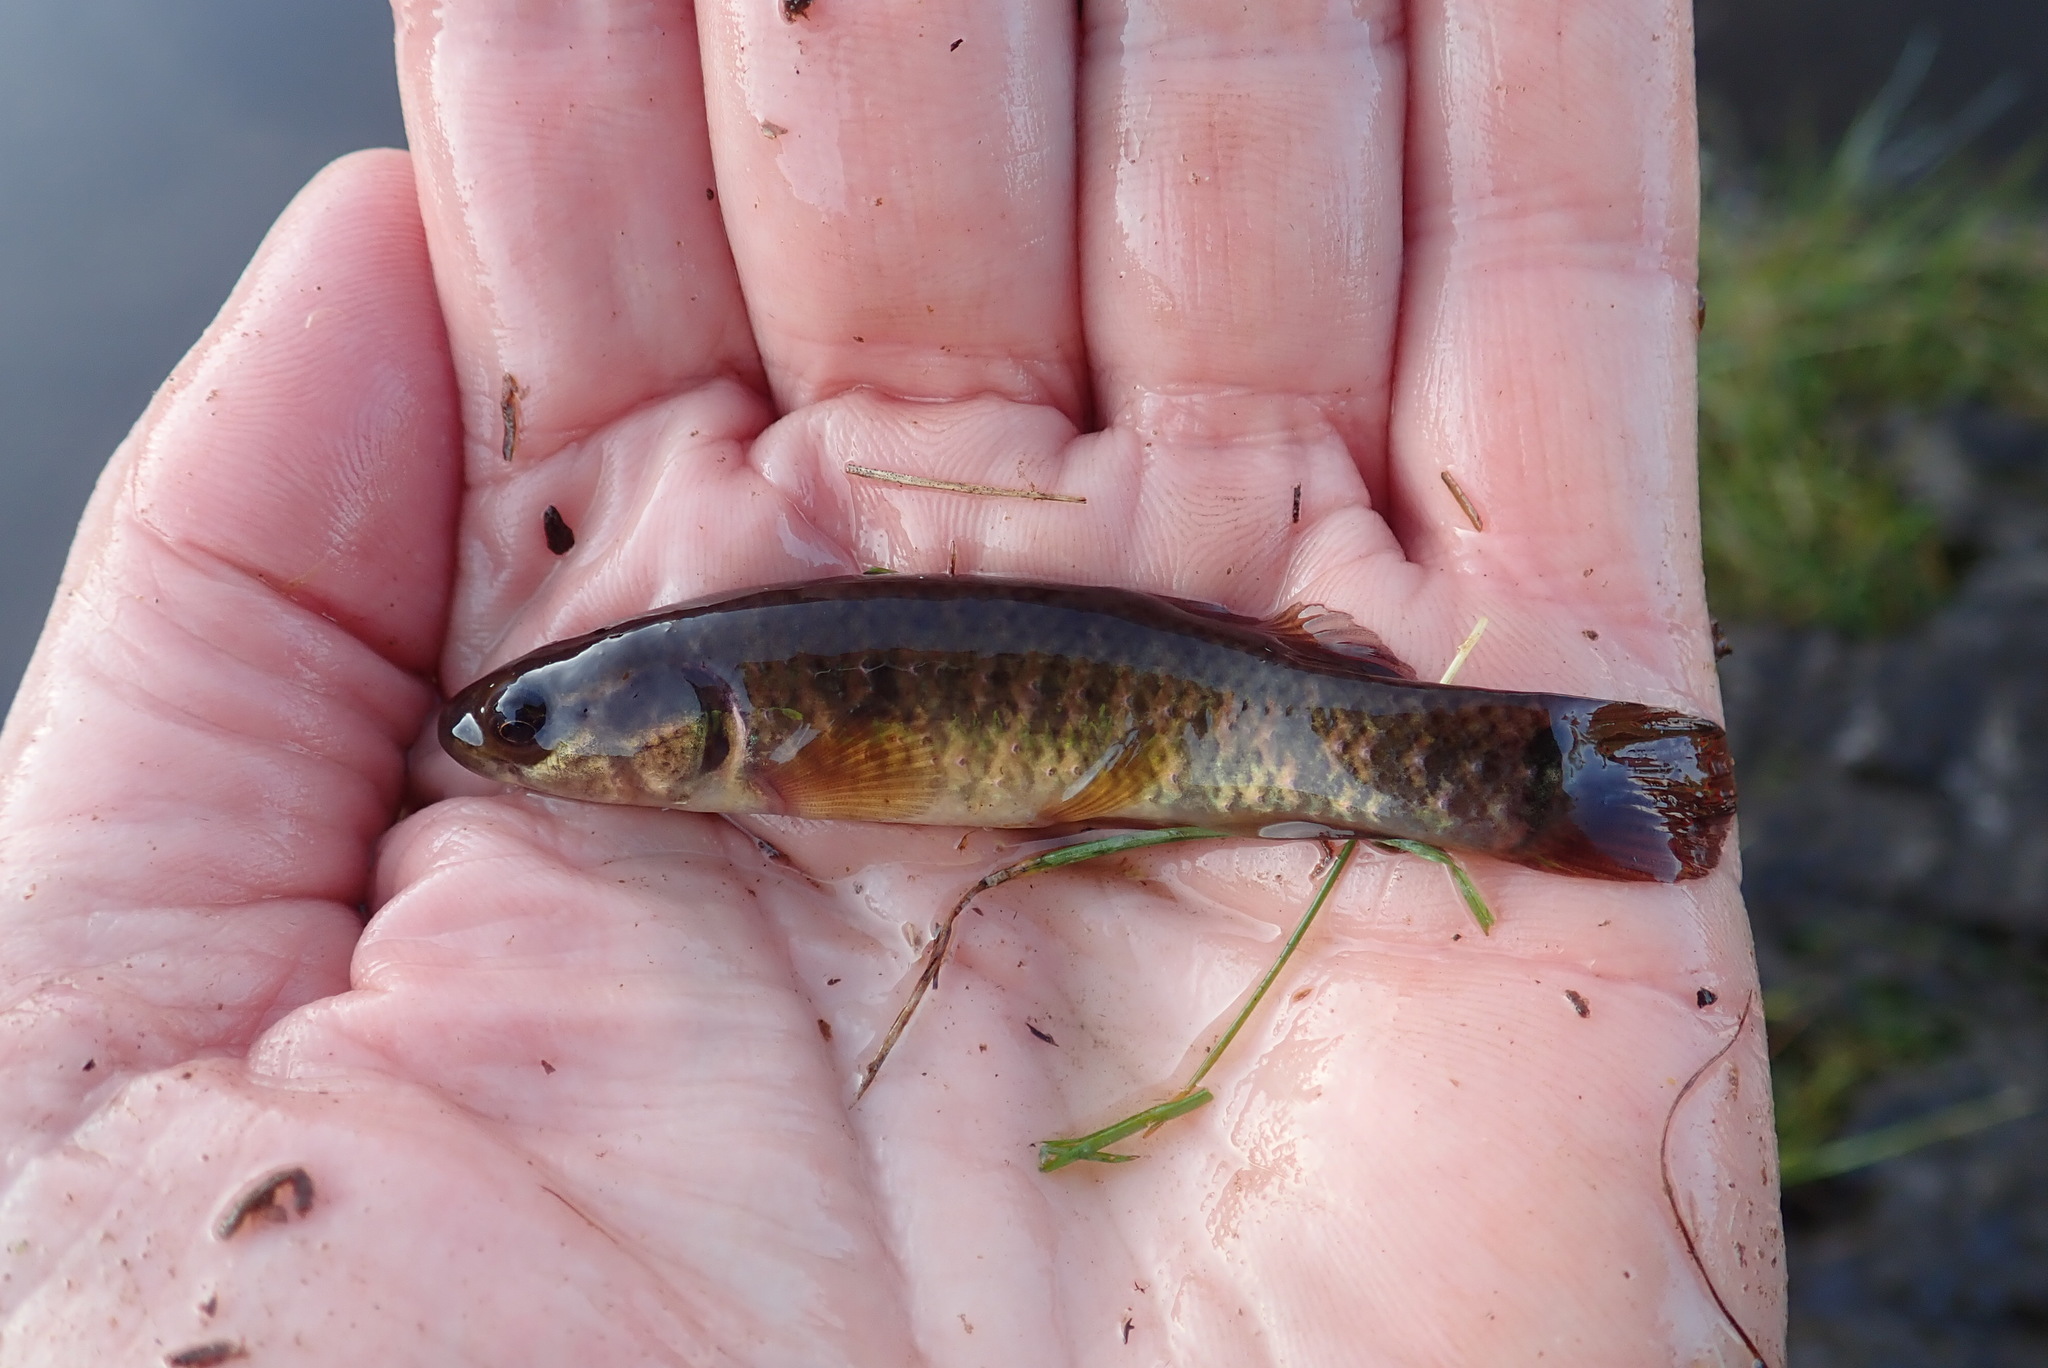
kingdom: Animalia
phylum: Chordata
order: Esociformes
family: Umbridae
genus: Umbra
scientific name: Umbra limi
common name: Central mudminnow
